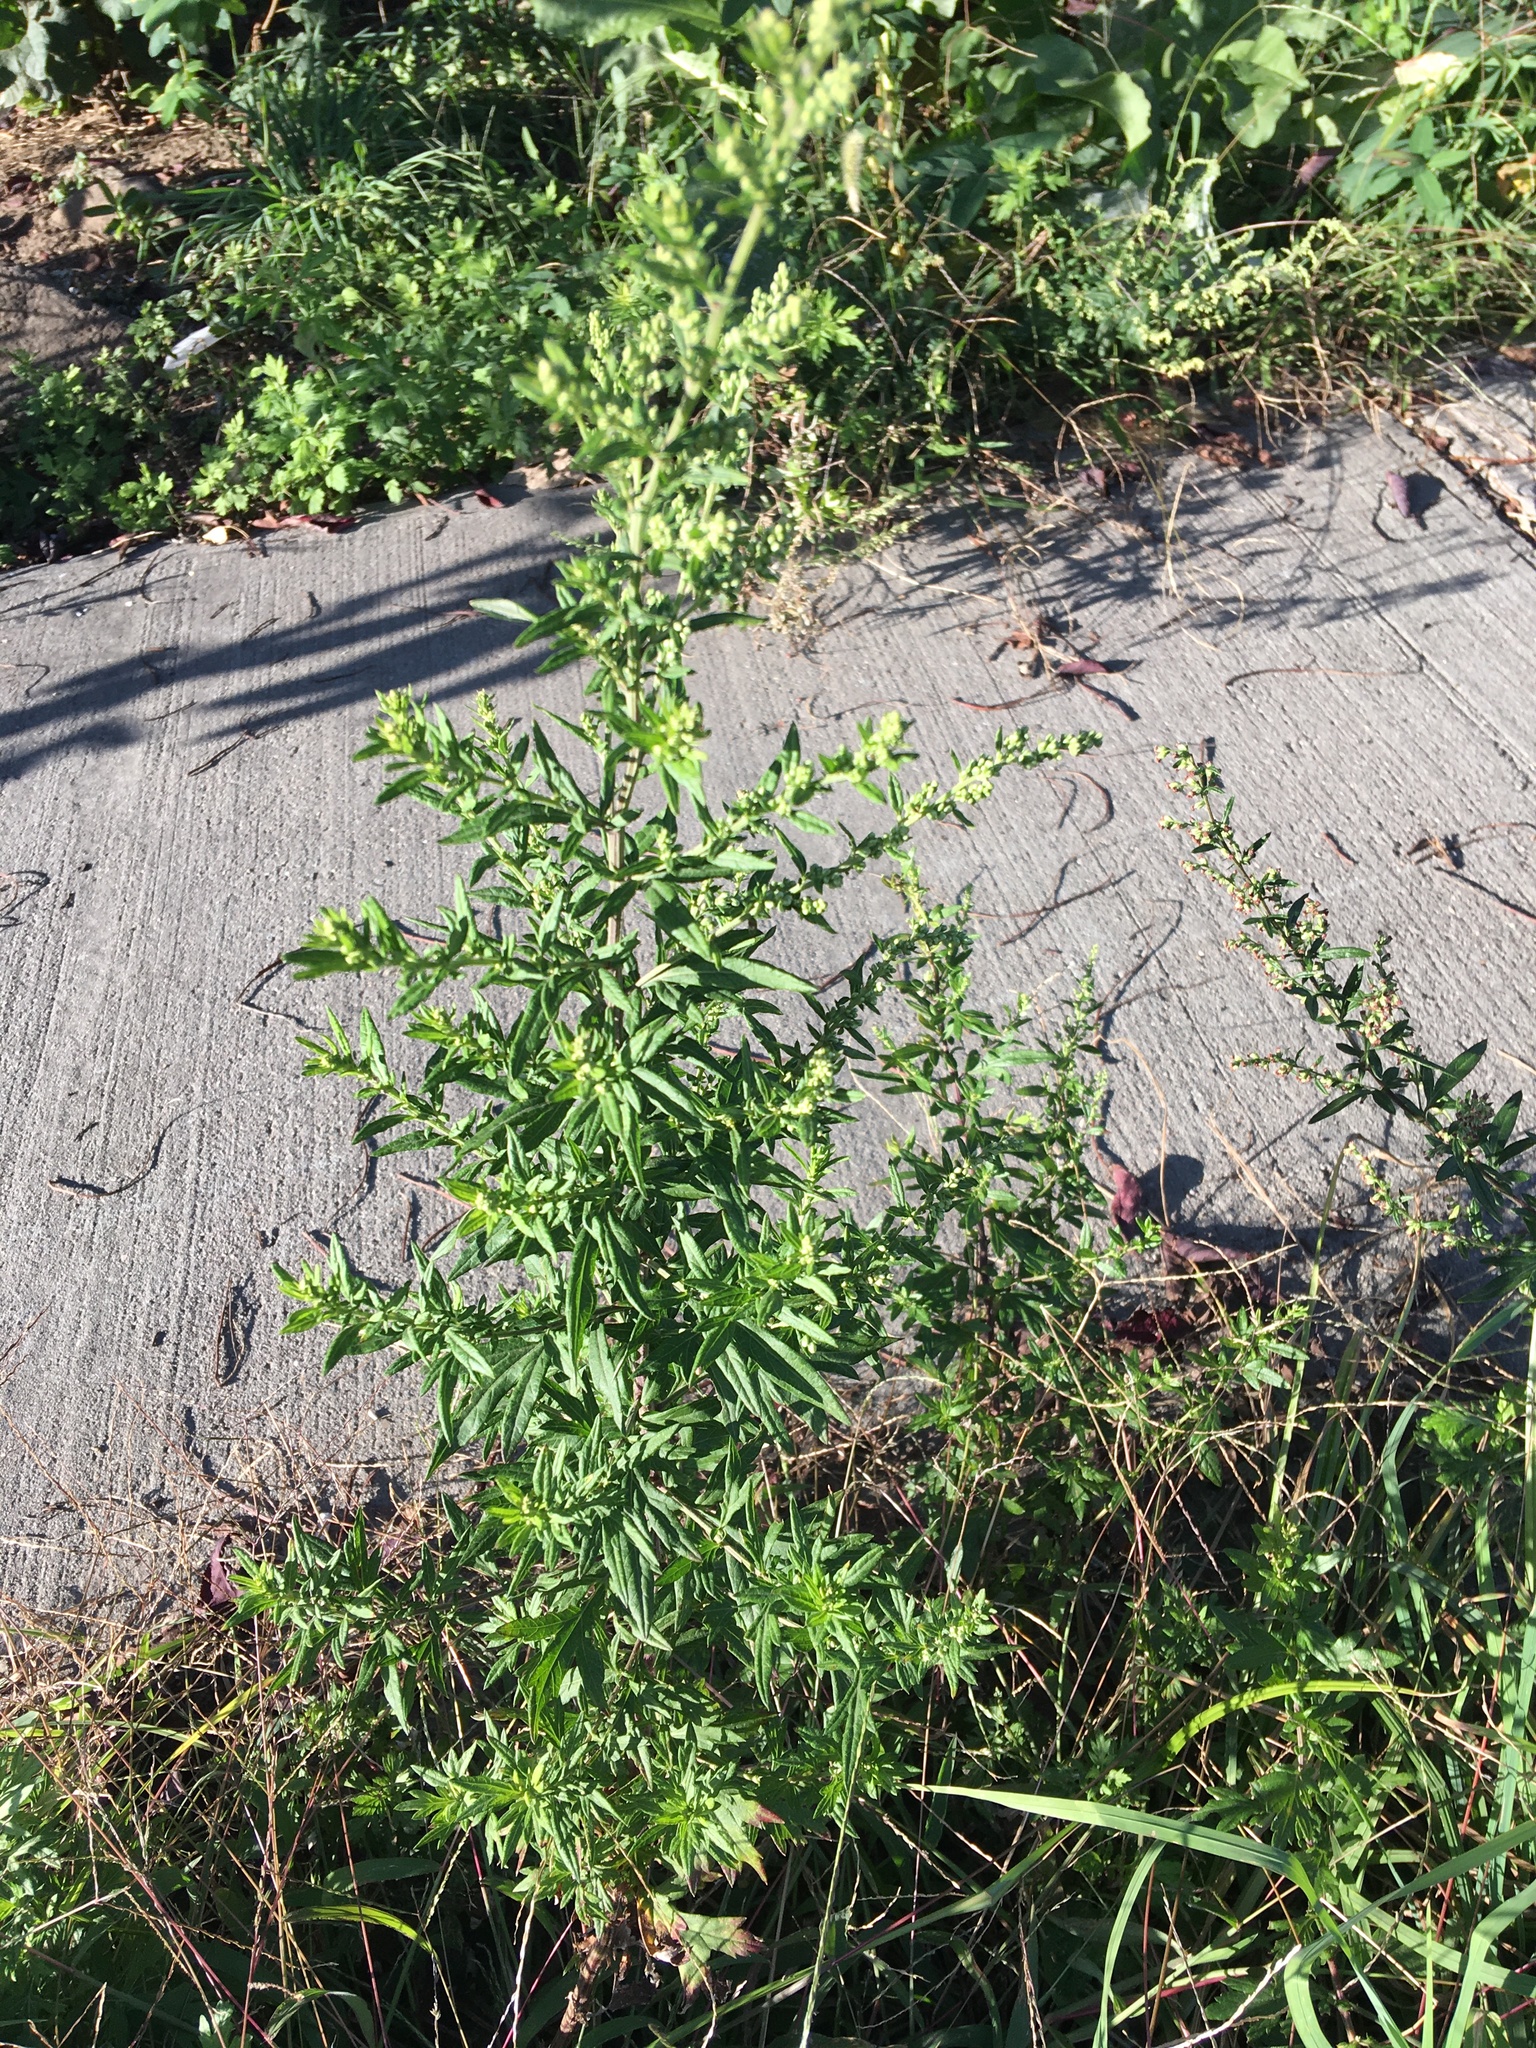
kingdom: Plantae
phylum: Tracheophyta
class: Magnoliopsida
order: Asterales
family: Asteraceae
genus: Artemisia
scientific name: Artemisia vulgaris
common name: Mugwort
